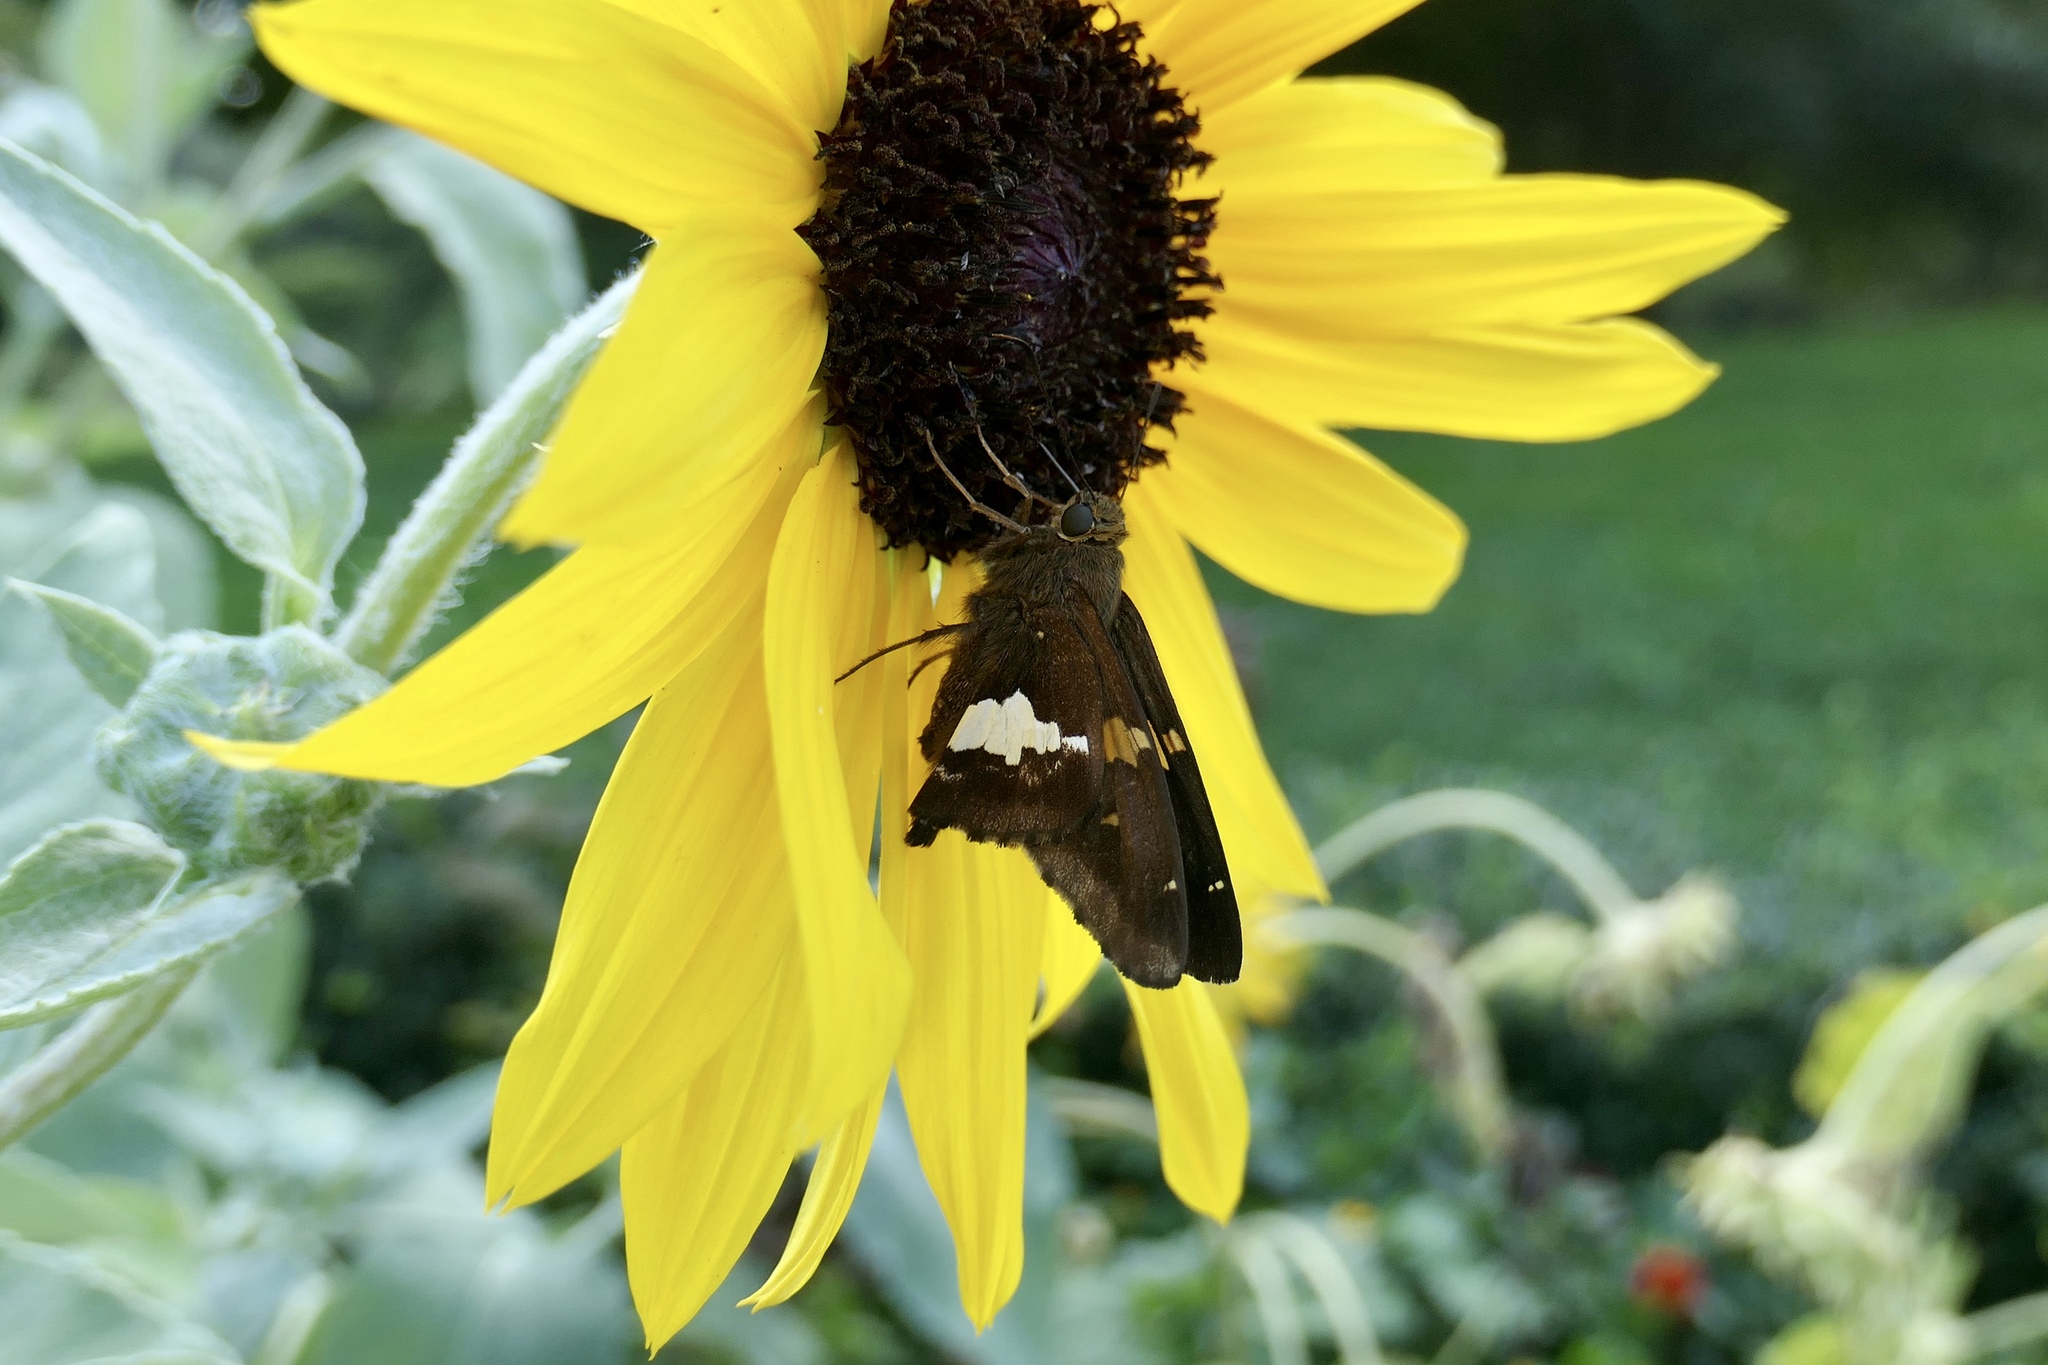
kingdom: Animalia
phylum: Arthropoda
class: Insecta
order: Lepidoptera
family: Hesperiidae
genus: Epargyreus
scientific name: Epargyreus clarus
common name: Silver-spotted skipper
